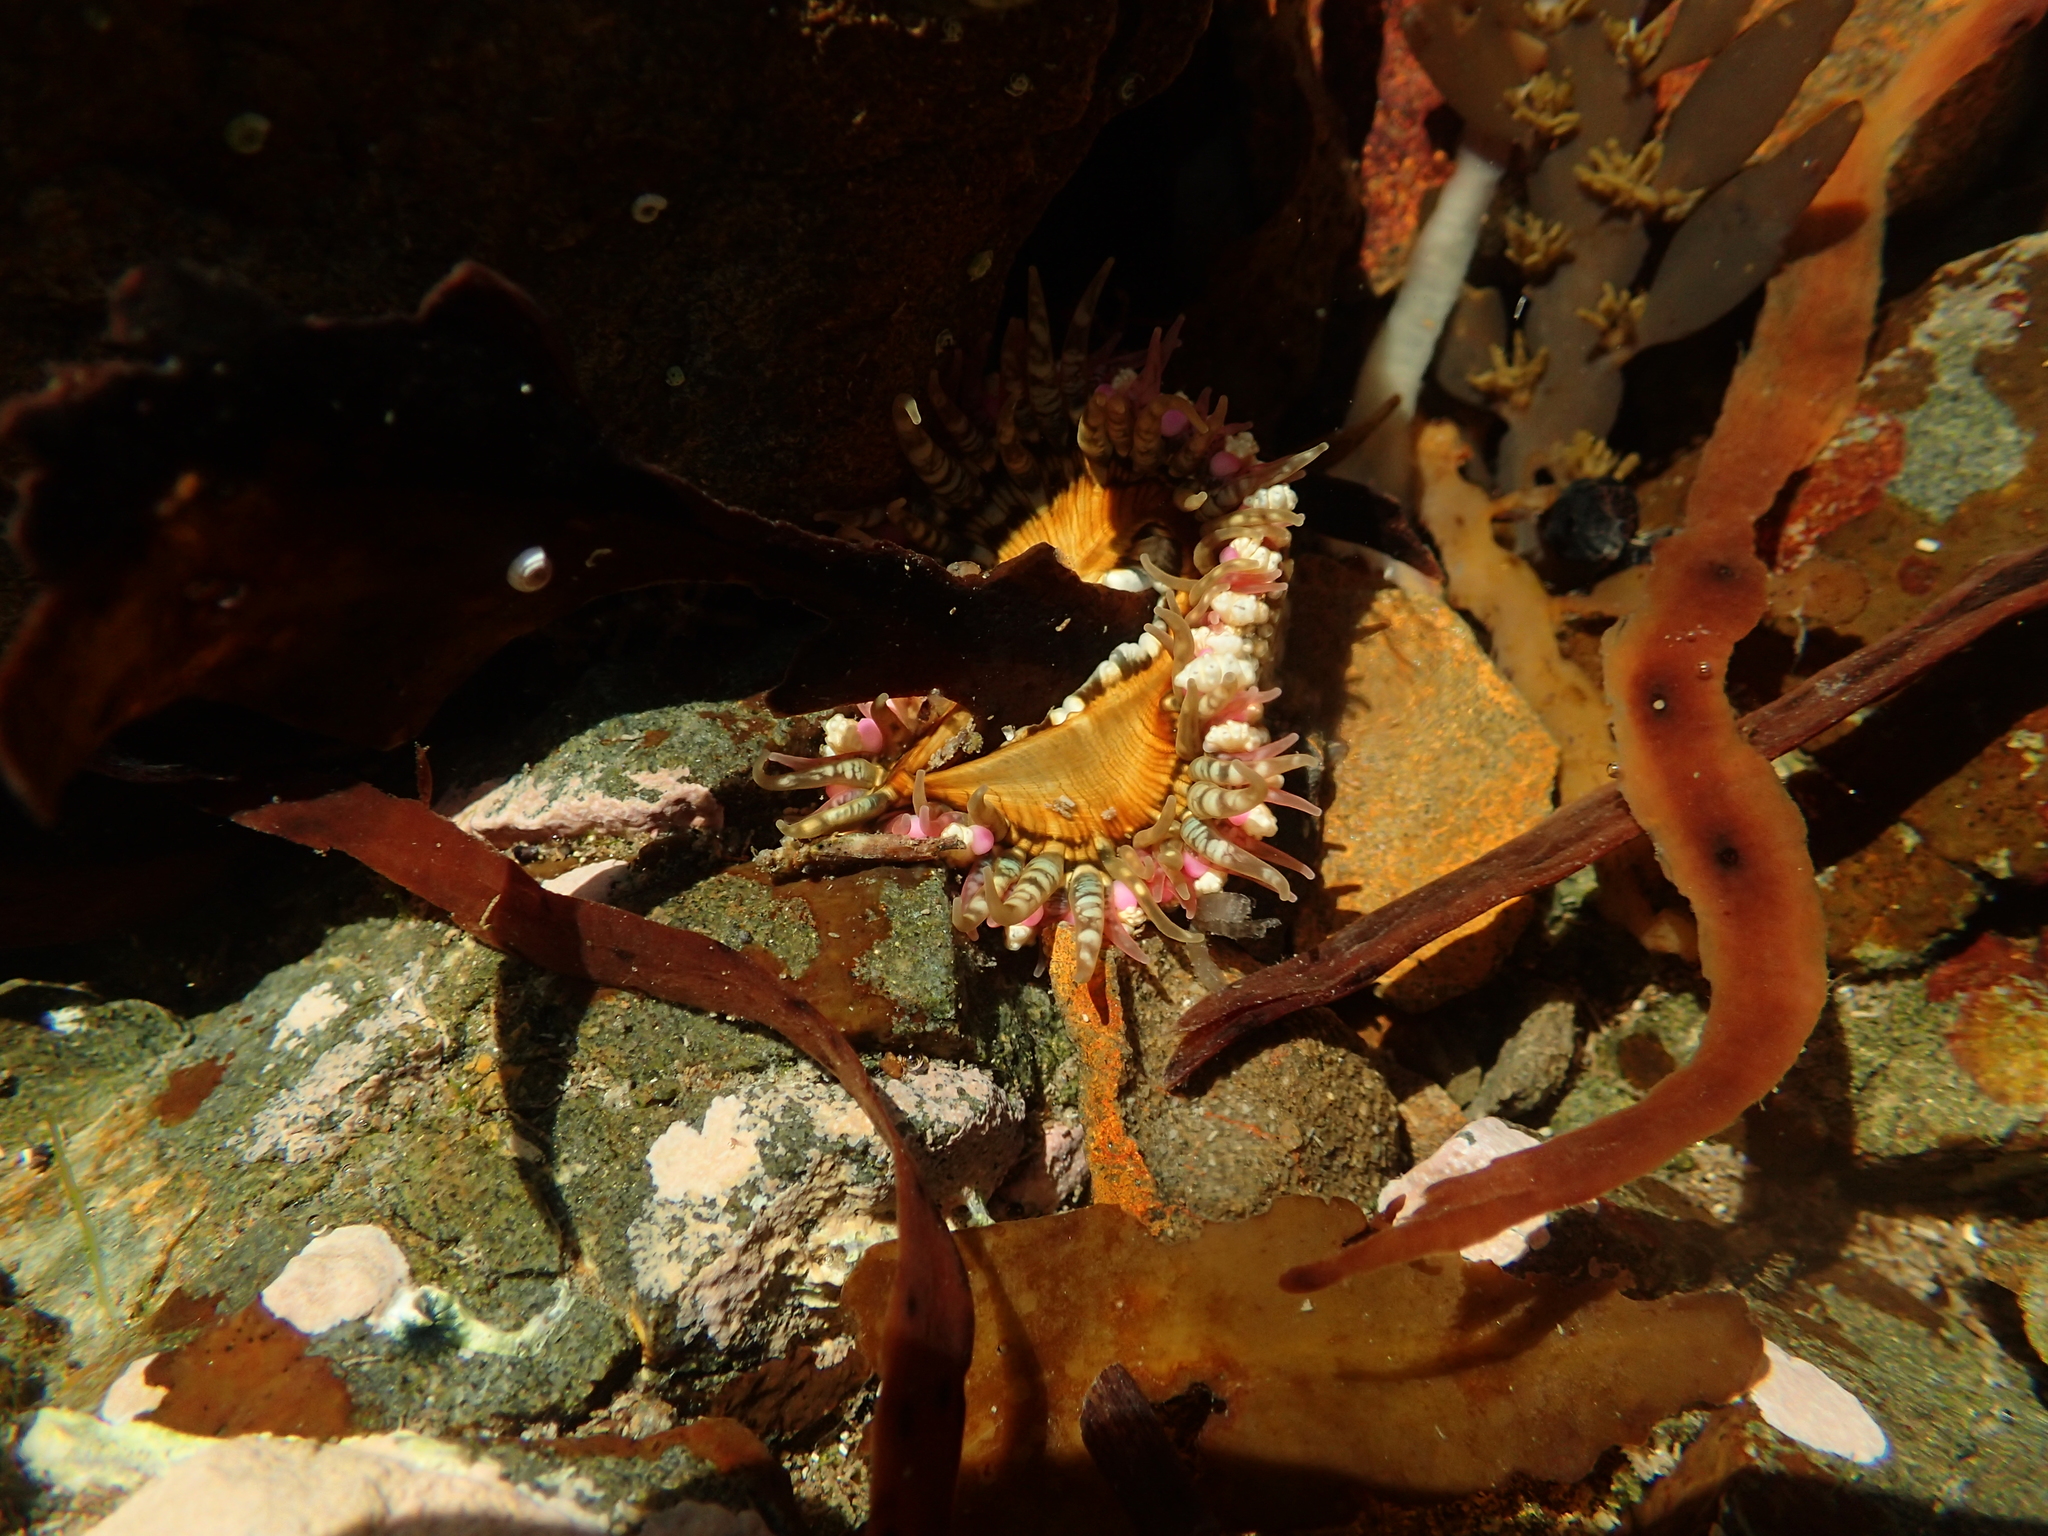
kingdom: Animalia
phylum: Cnidaria
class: Anthozoa
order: Actiniaria
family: Actiniidae
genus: Oulactis
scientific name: Oulactis muscosa
